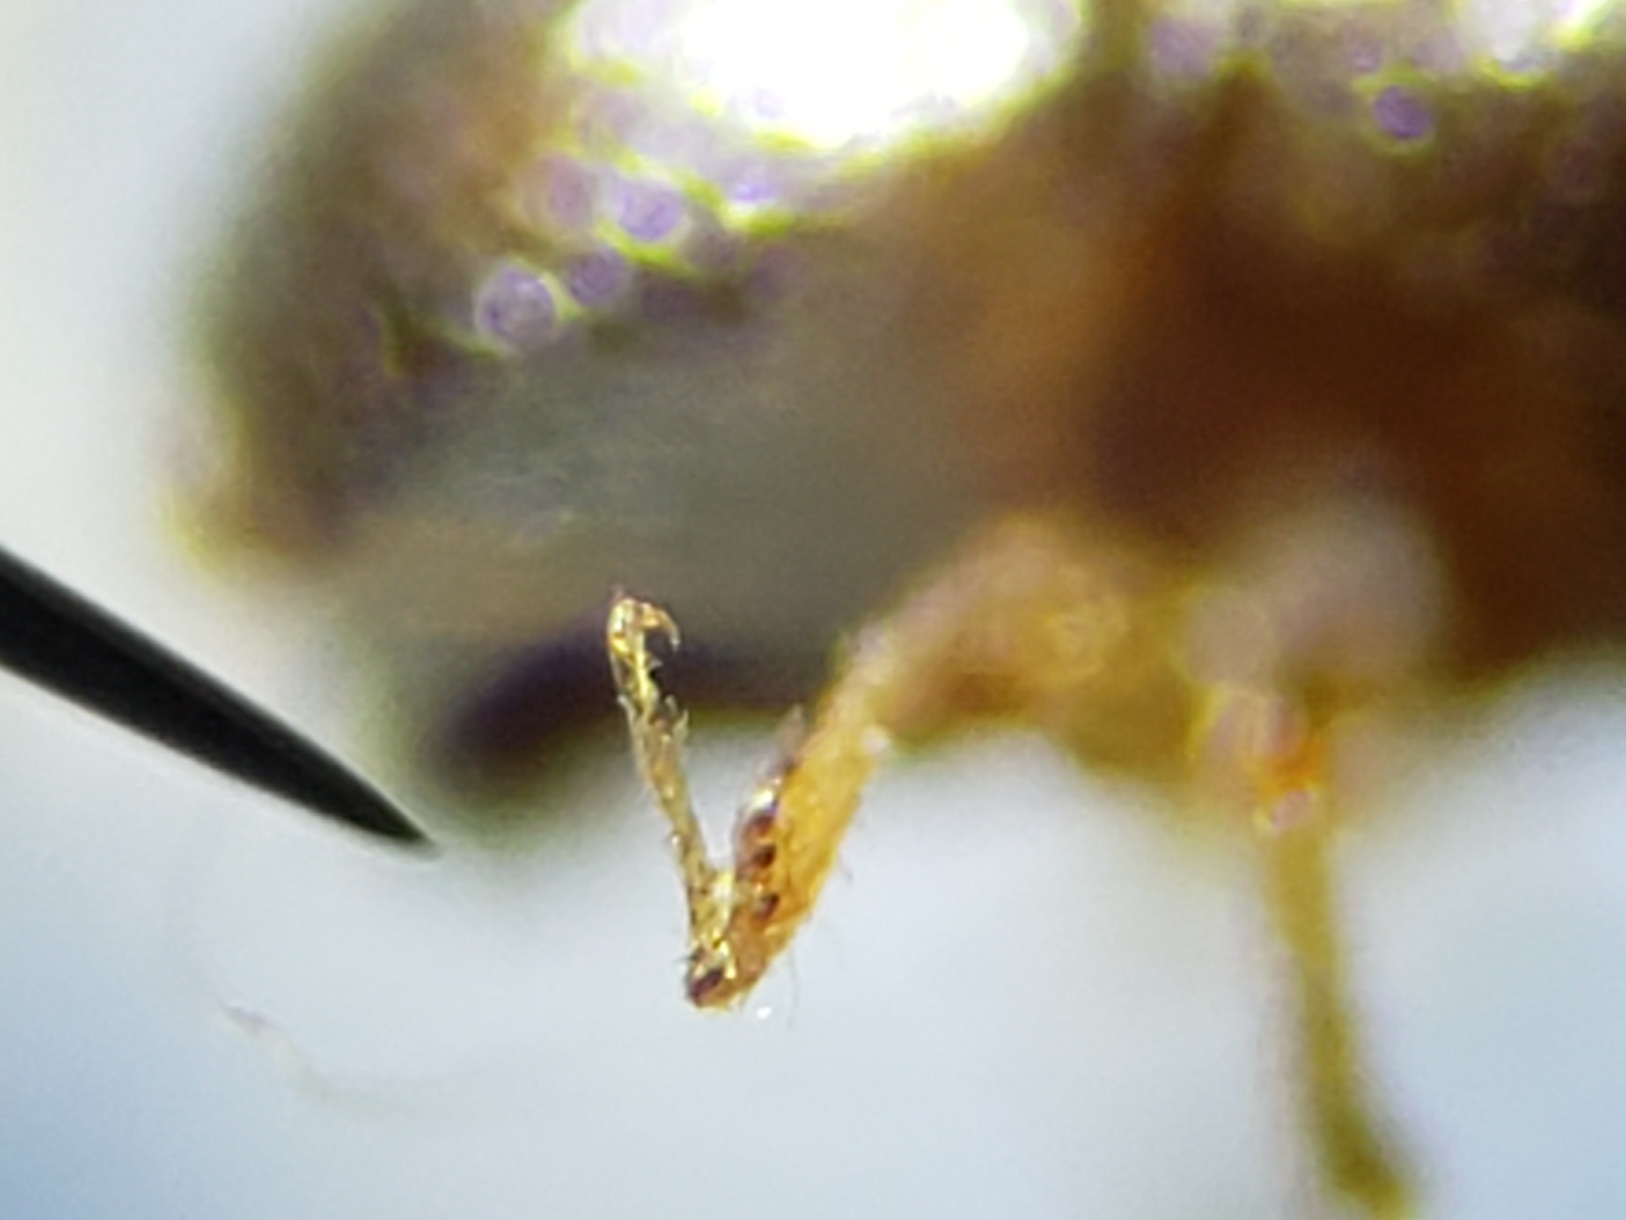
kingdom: Animalia
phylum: Arthropoda
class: Insecta
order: Coleoptera
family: Curculionidae
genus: Xylosandrus
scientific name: Xylosandrus compactus
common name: Black twig borer
